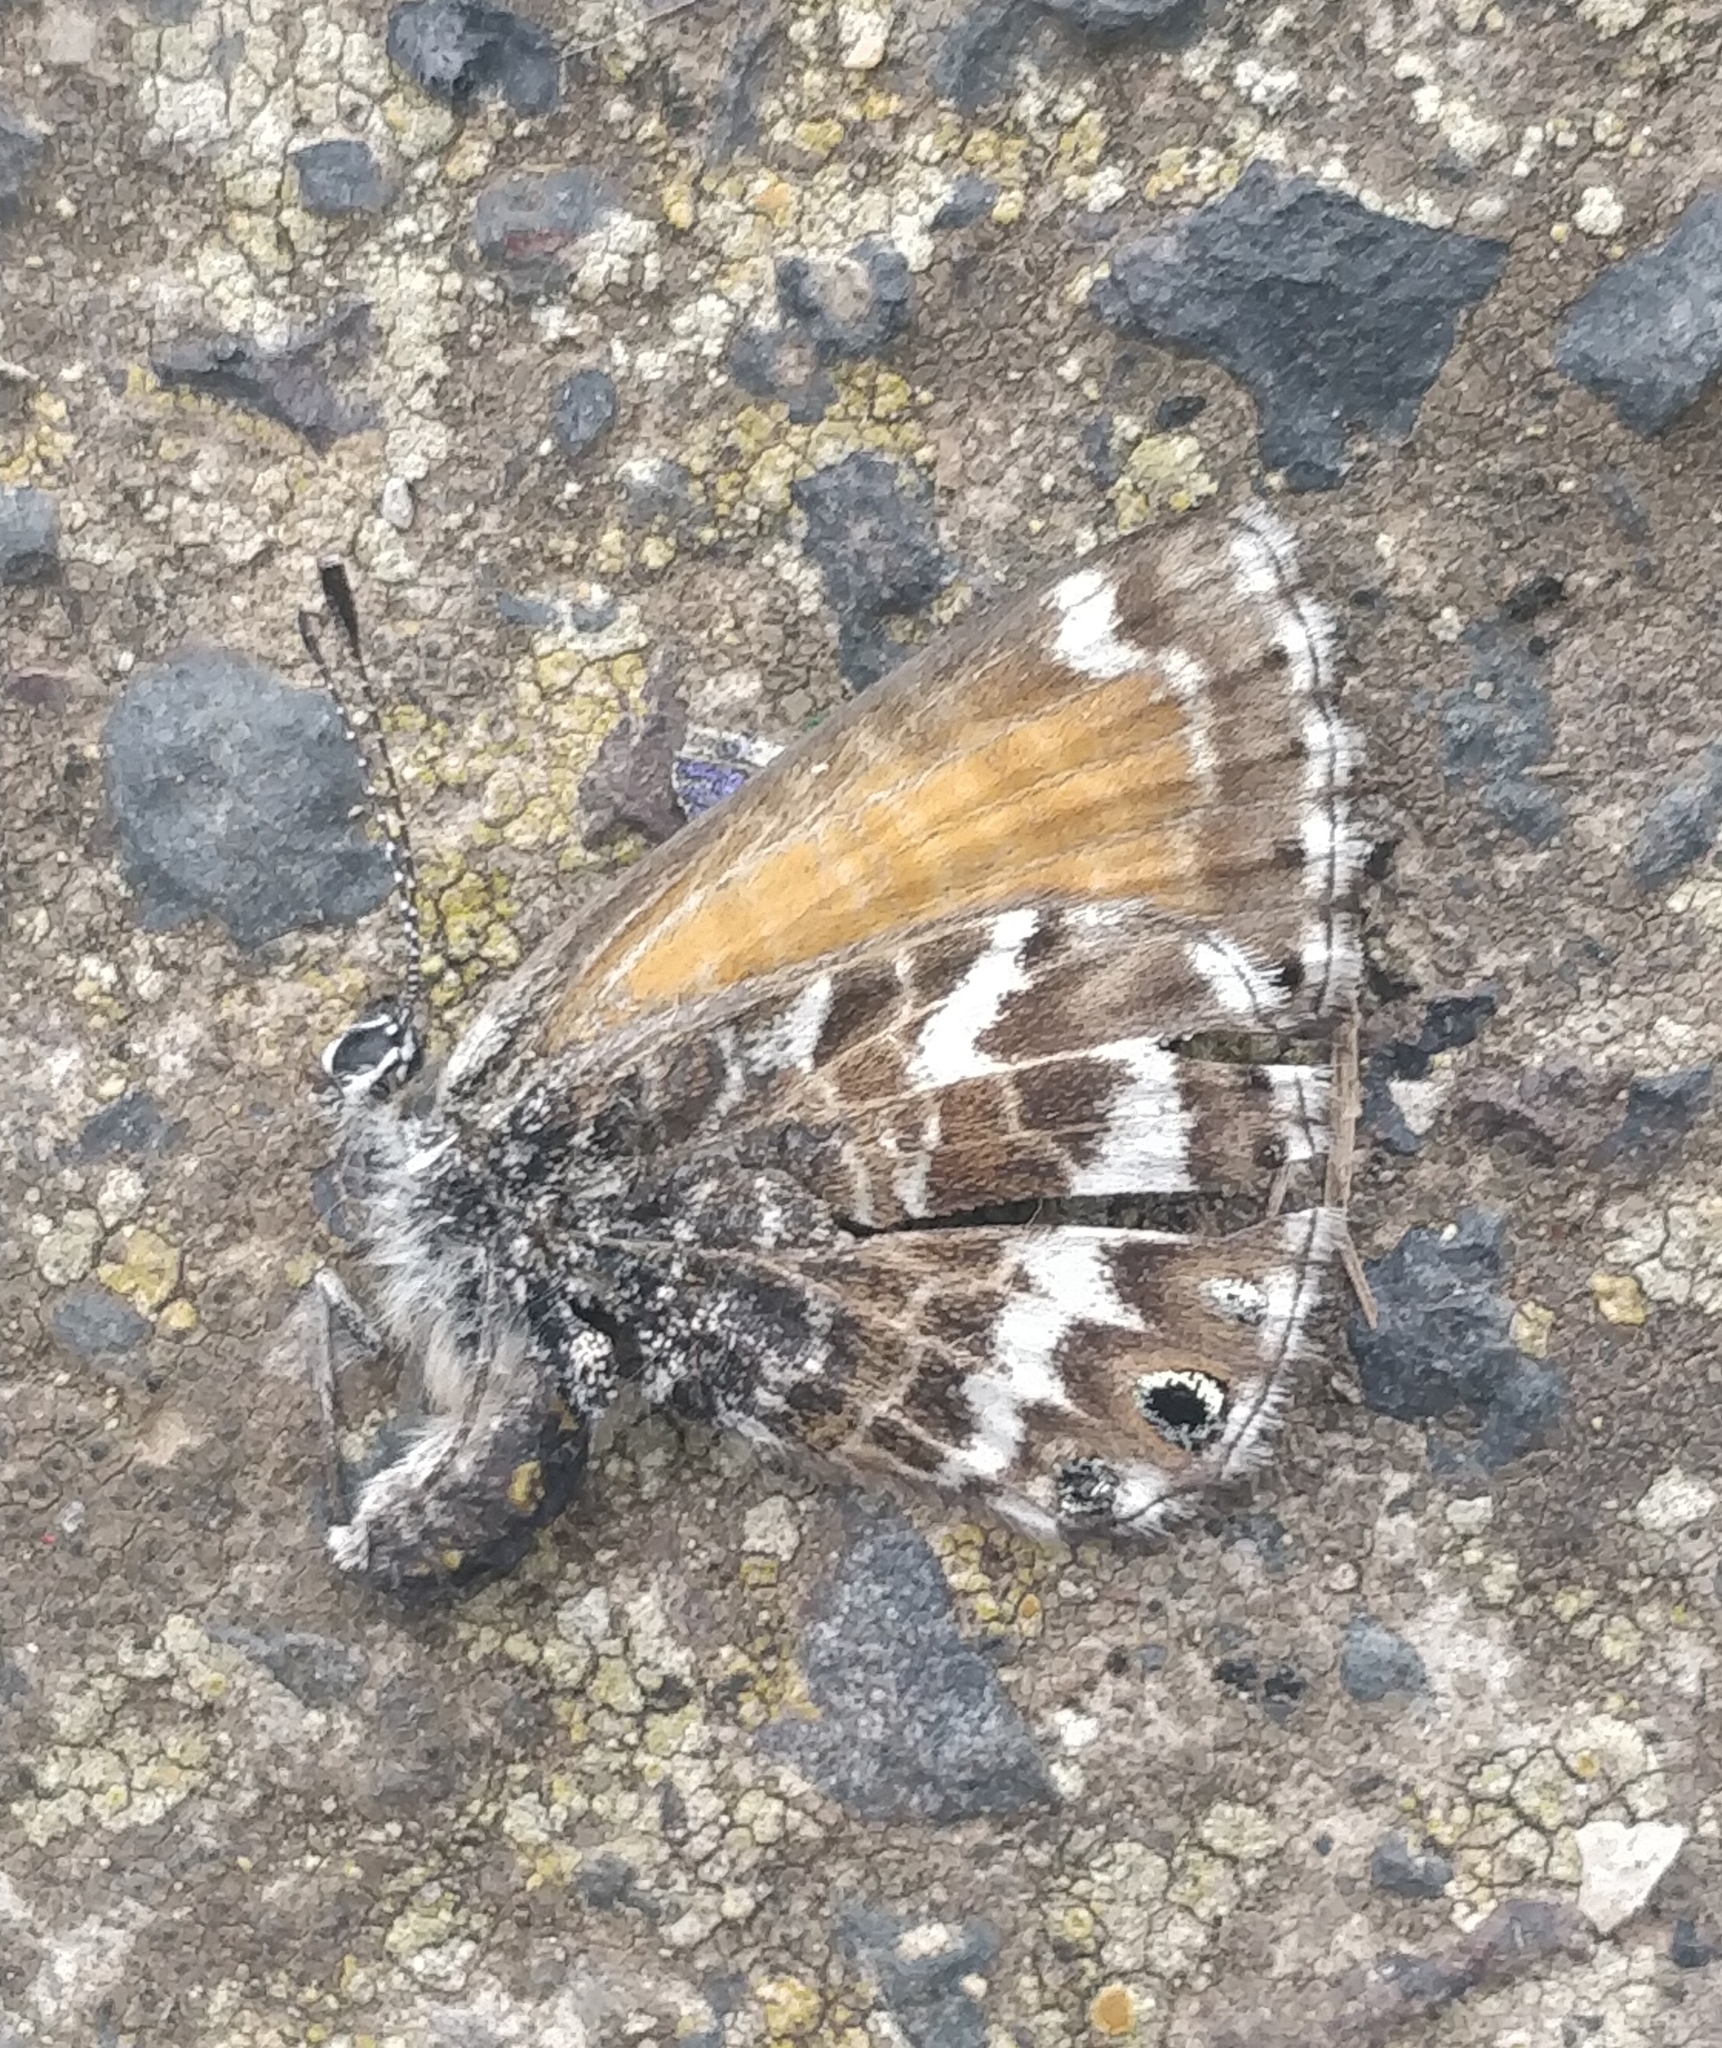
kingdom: Animalia
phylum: Arthropoda
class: Insecta
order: Lepidoptera
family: Lycaenidae
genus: Cyclyrius
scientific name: Cyclyrius webbianus
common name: Canary blue
